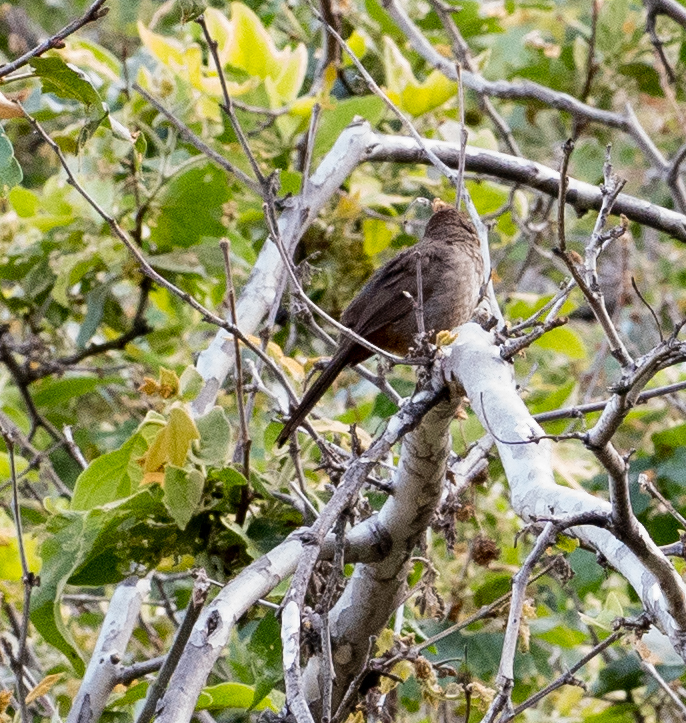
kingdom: Animalia
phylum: Chordata
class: Aves
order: Passeriformes
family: Passerellidae
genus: Melozone
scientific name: Melozone crissalis
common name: California towhee
